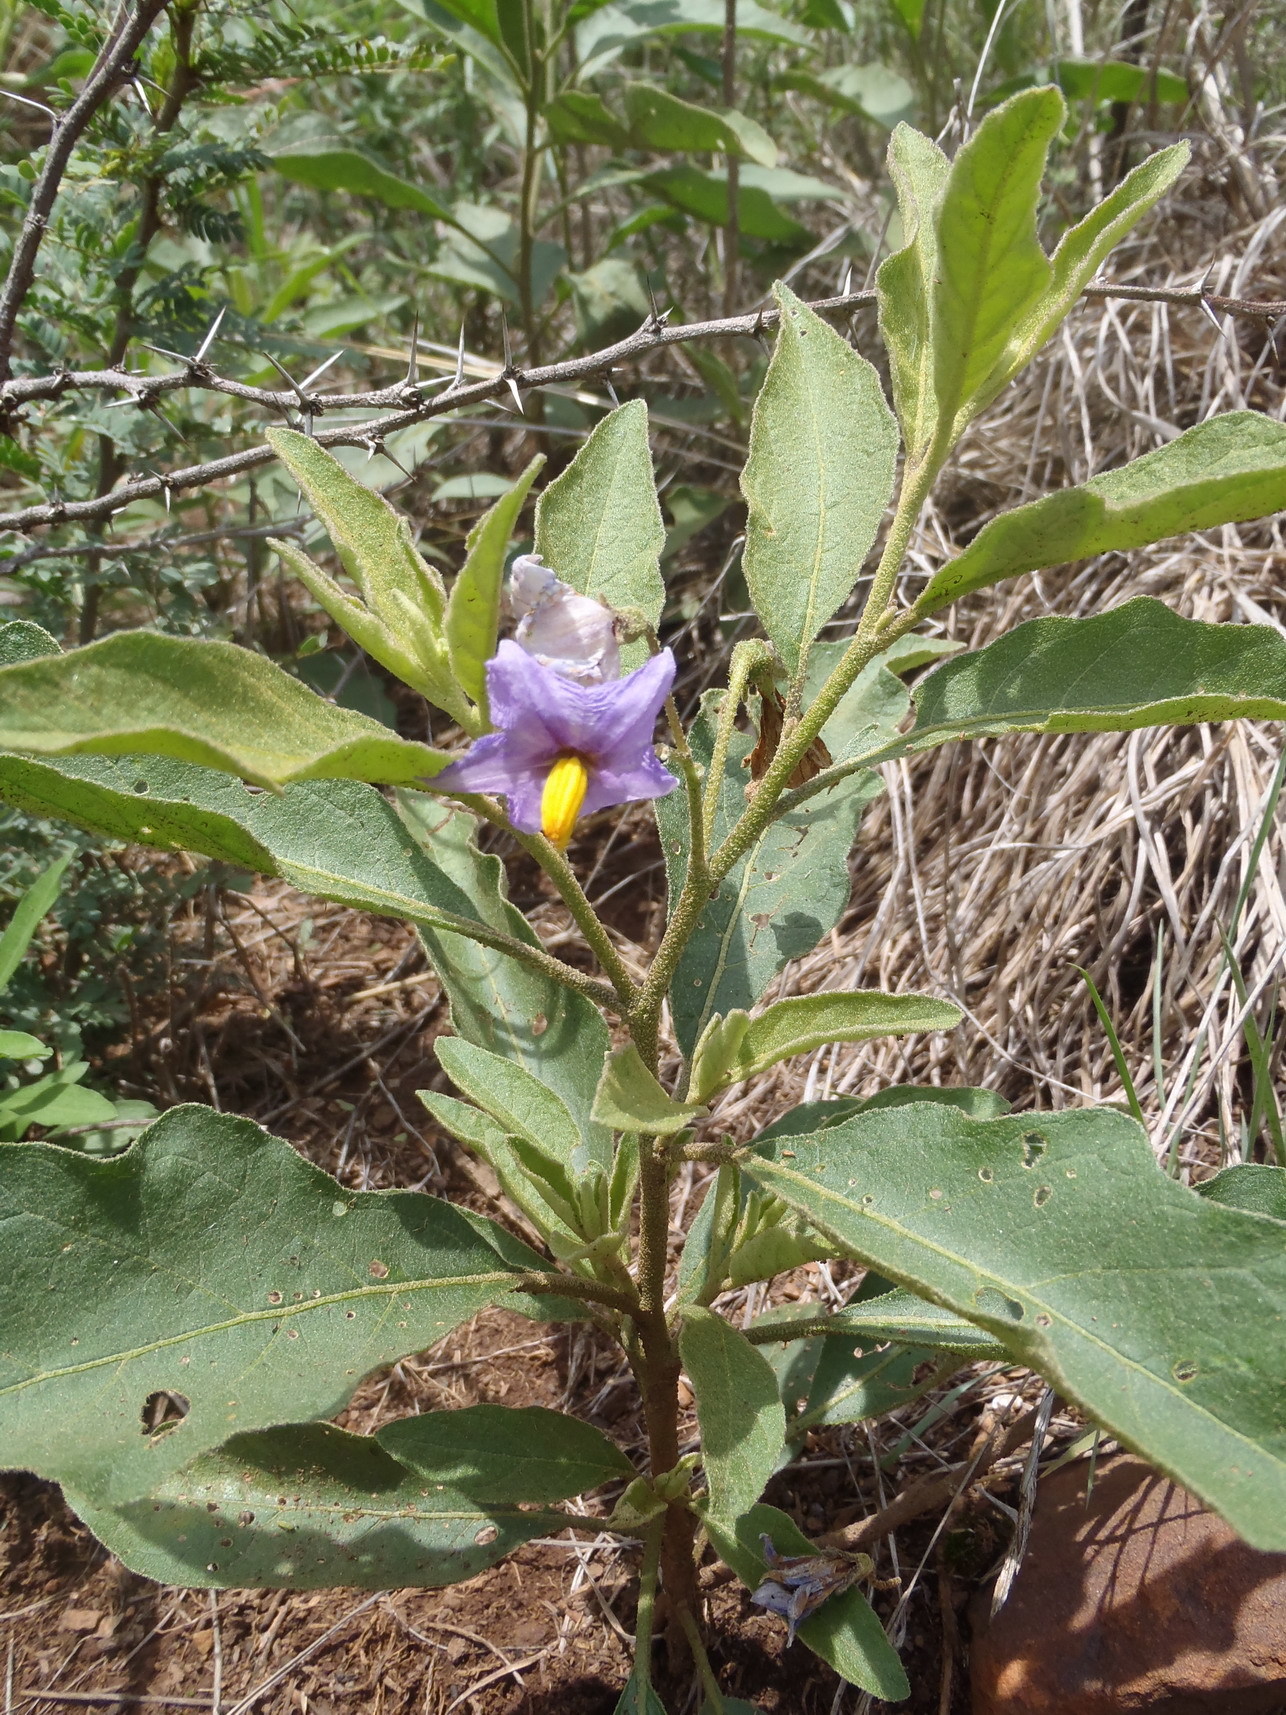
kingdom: Plantae
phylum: Tracheophyta
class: Magnoliopsida
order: Solanales
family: Solanaceae
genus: Solanum
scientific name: Solanum campylacanthum
